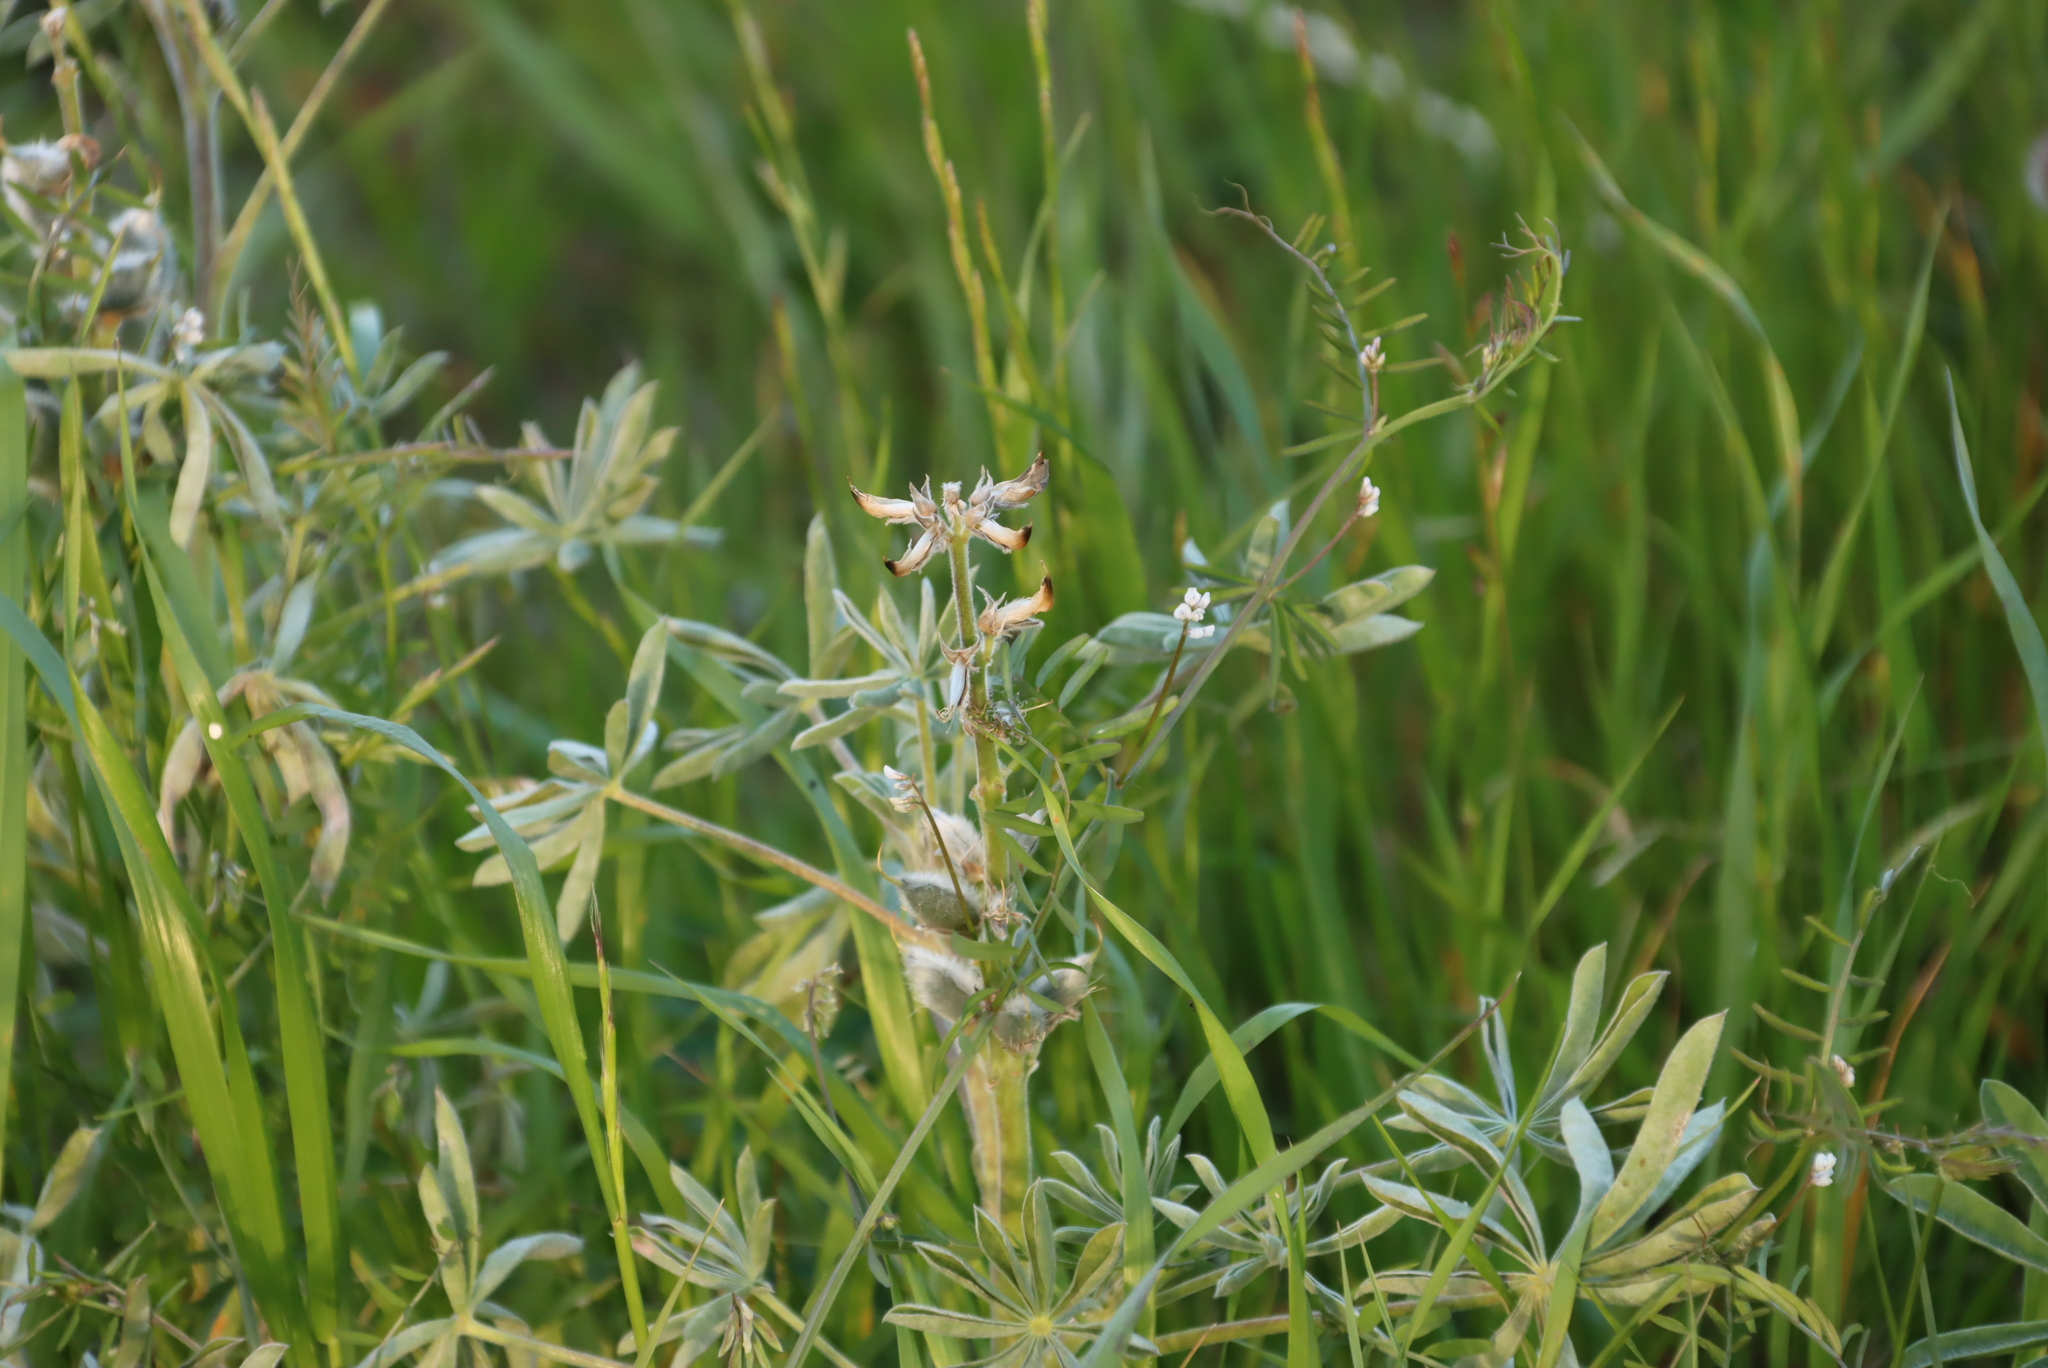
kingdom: Plantae
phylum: Tracheophyta
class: Magnoliopsida
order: Fabales
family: Fabaceae
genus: Vicia
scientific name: Vicia hirsuta
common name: Tiny vetch
